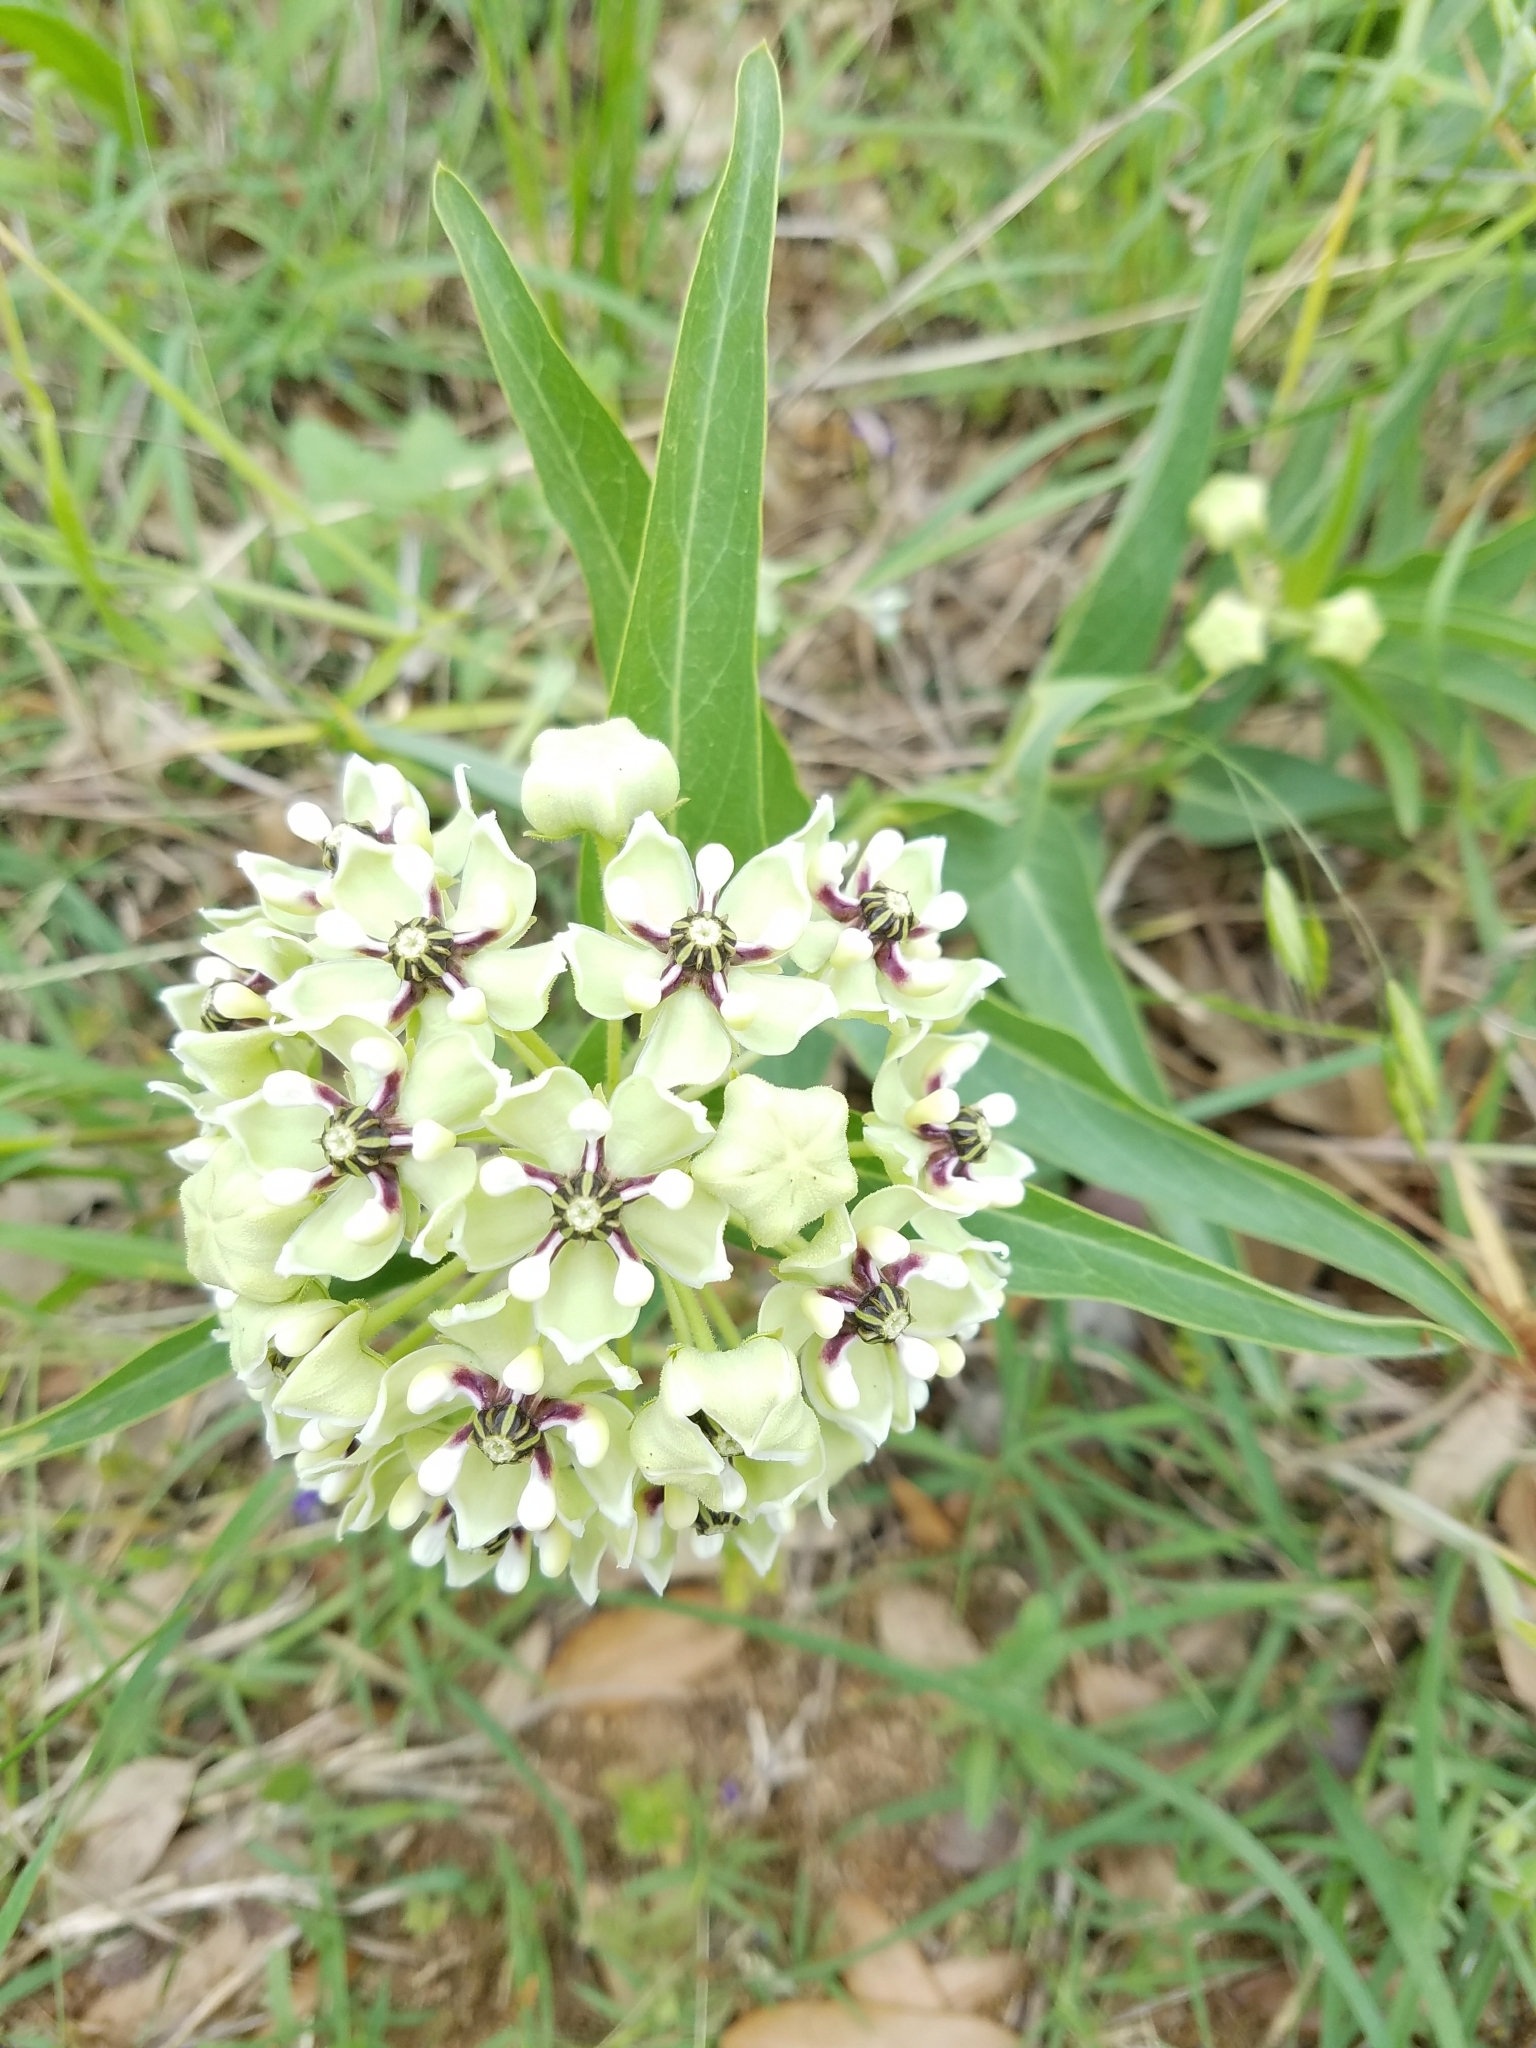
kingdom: Plantae
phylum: Tracheophyta
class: Magnoliopsida
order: Gentianales
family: Apocynaceae
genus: Asclepias
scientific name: Asclepias asperula
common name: Antelope horns
